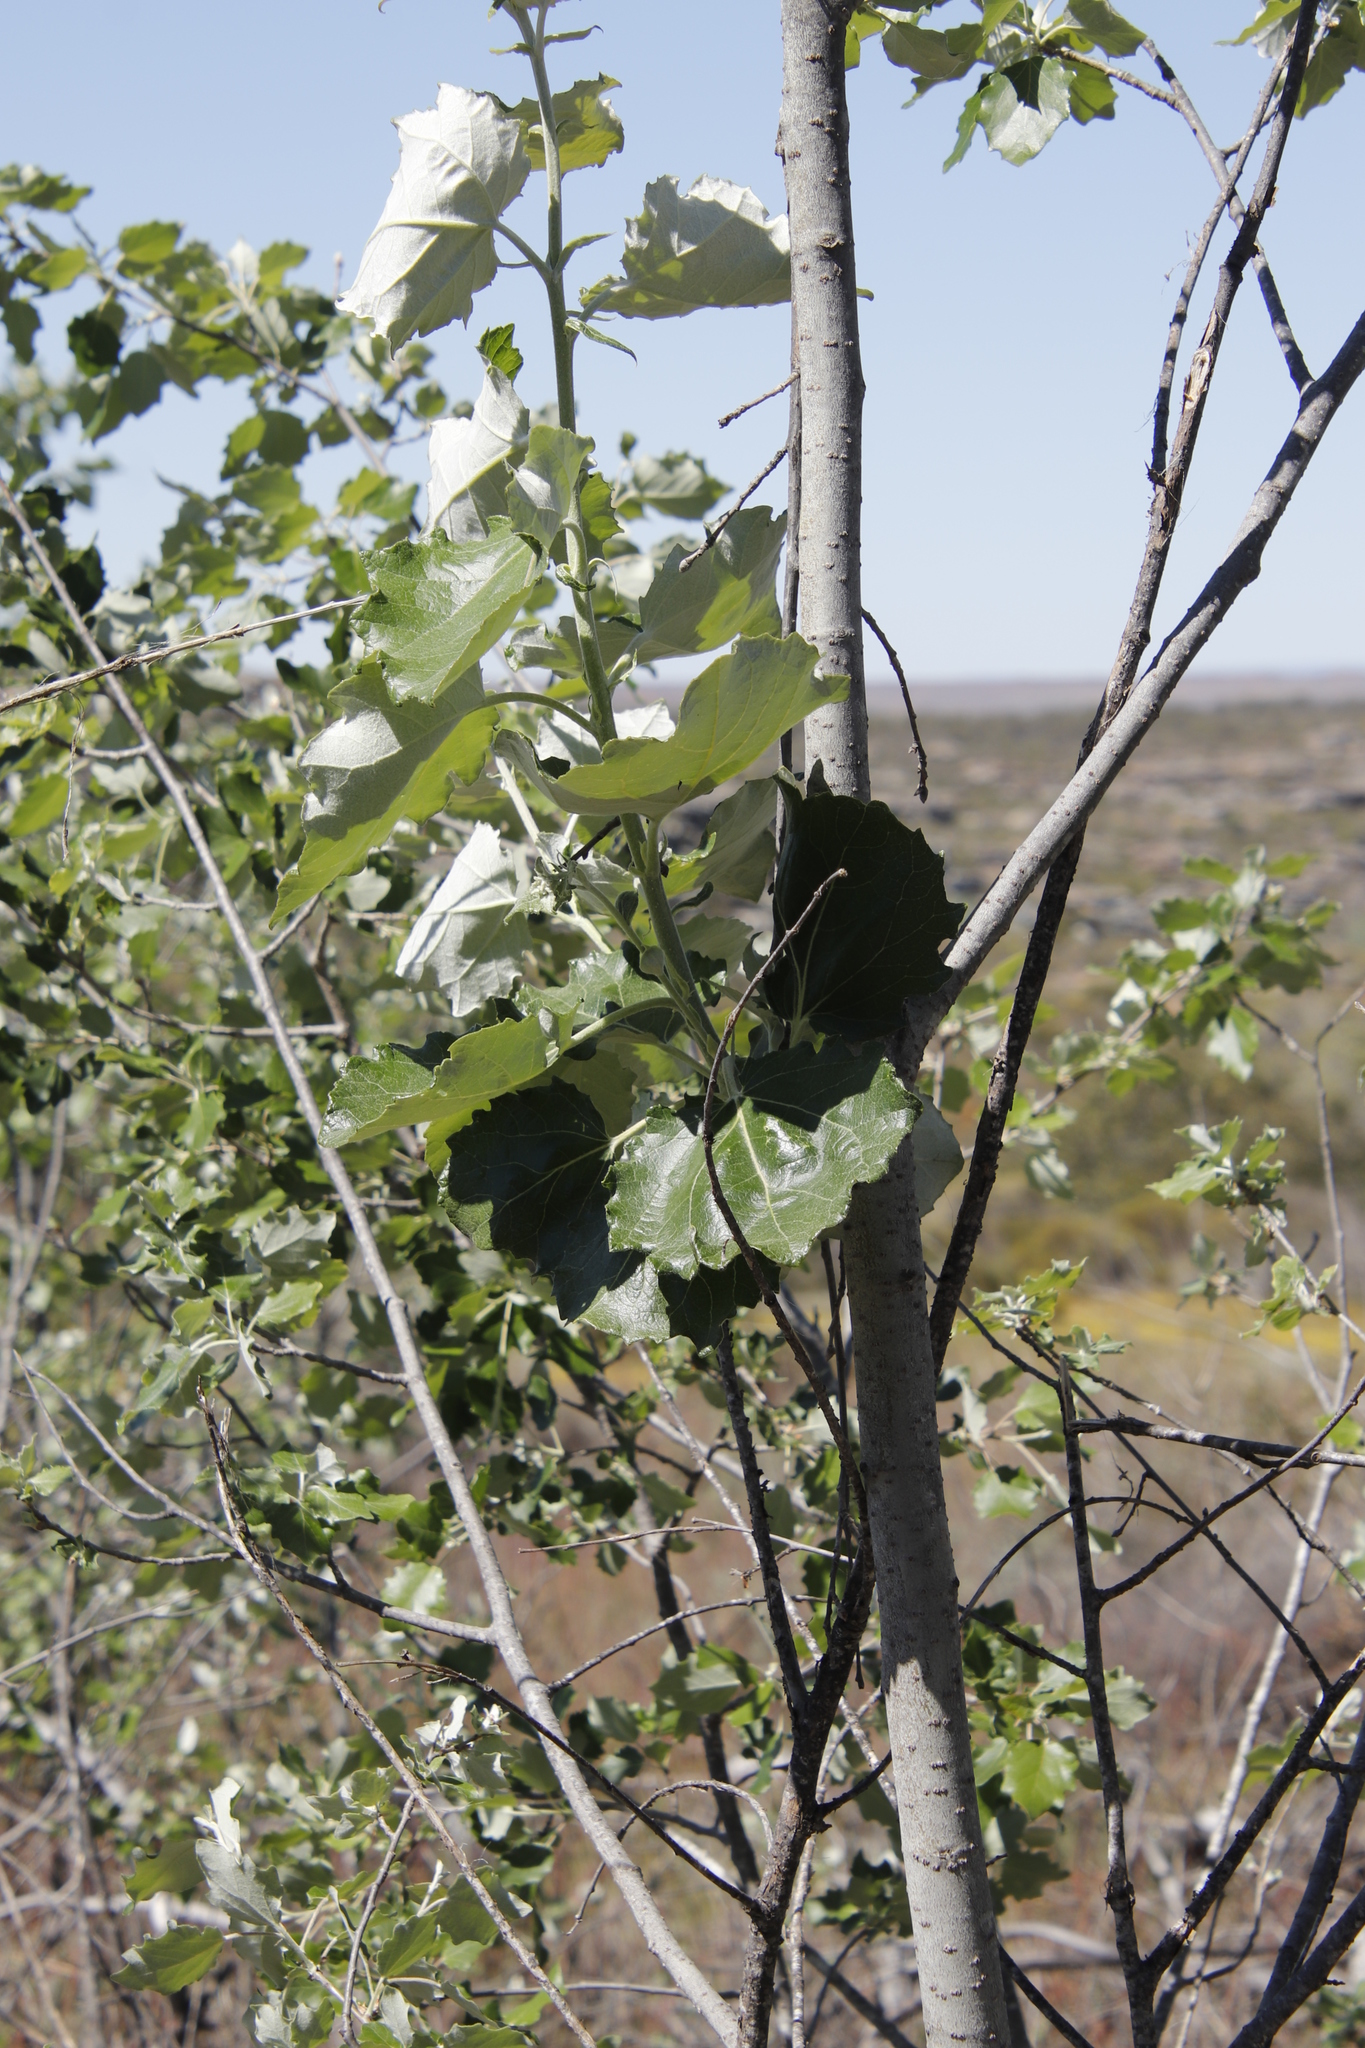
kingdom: Plantae
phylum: Tracheophyta
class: Magnoliopsida
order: Malpighiales
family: Salicaceae
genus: Populus
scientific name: Populus canescens
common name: Gray poplar
